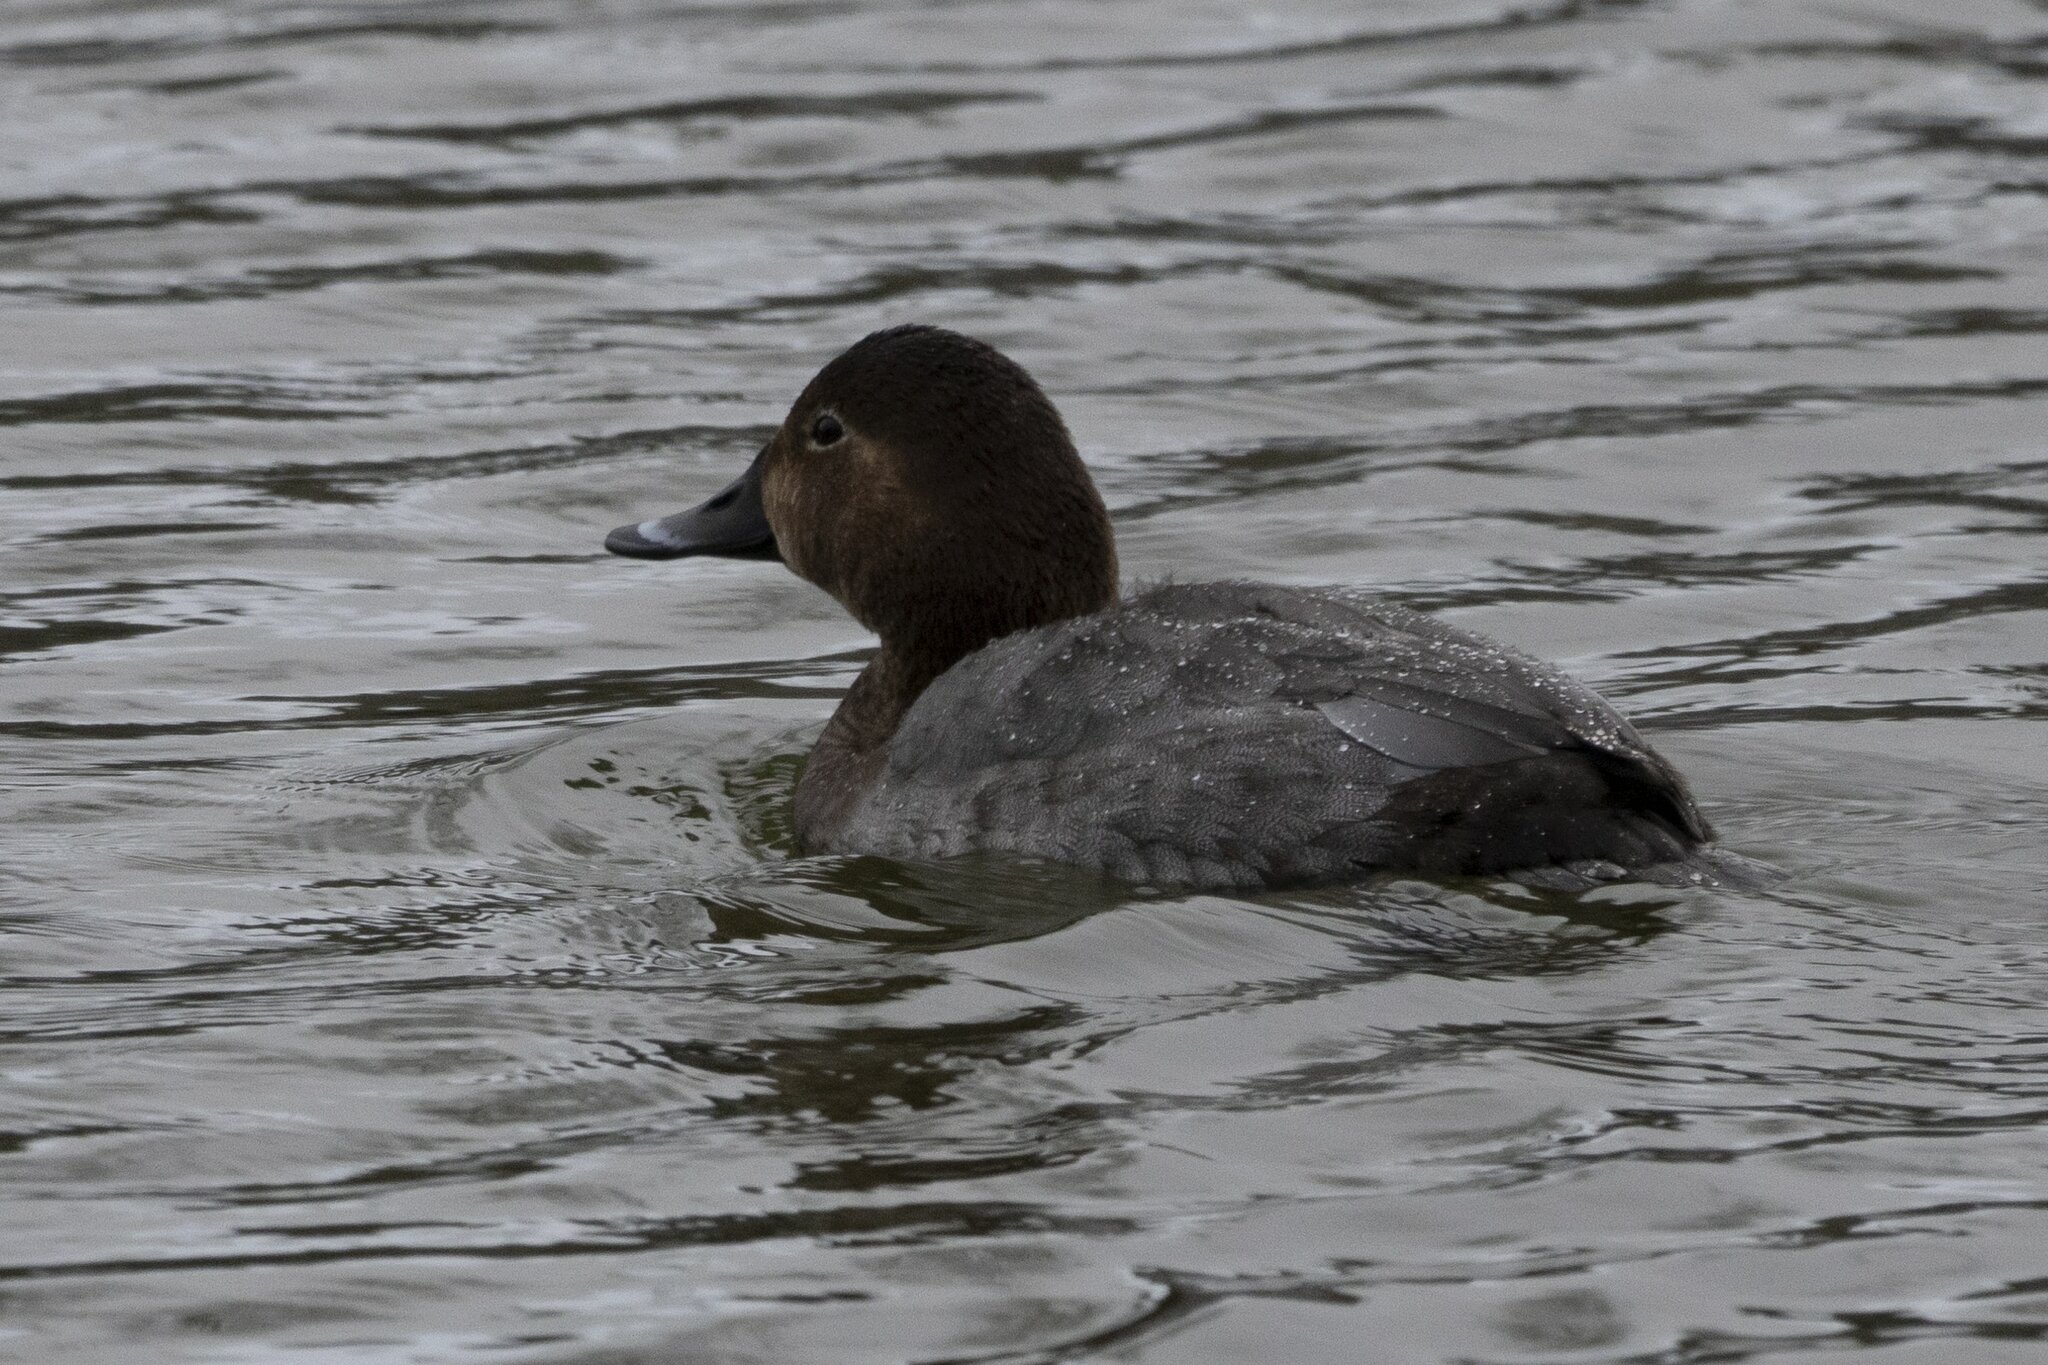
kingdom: Animalia
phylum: Chordata
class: Aves
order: Anseriformes
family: Anatidae
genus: Aythya
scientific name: Aythya ferina
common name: Common pochard
